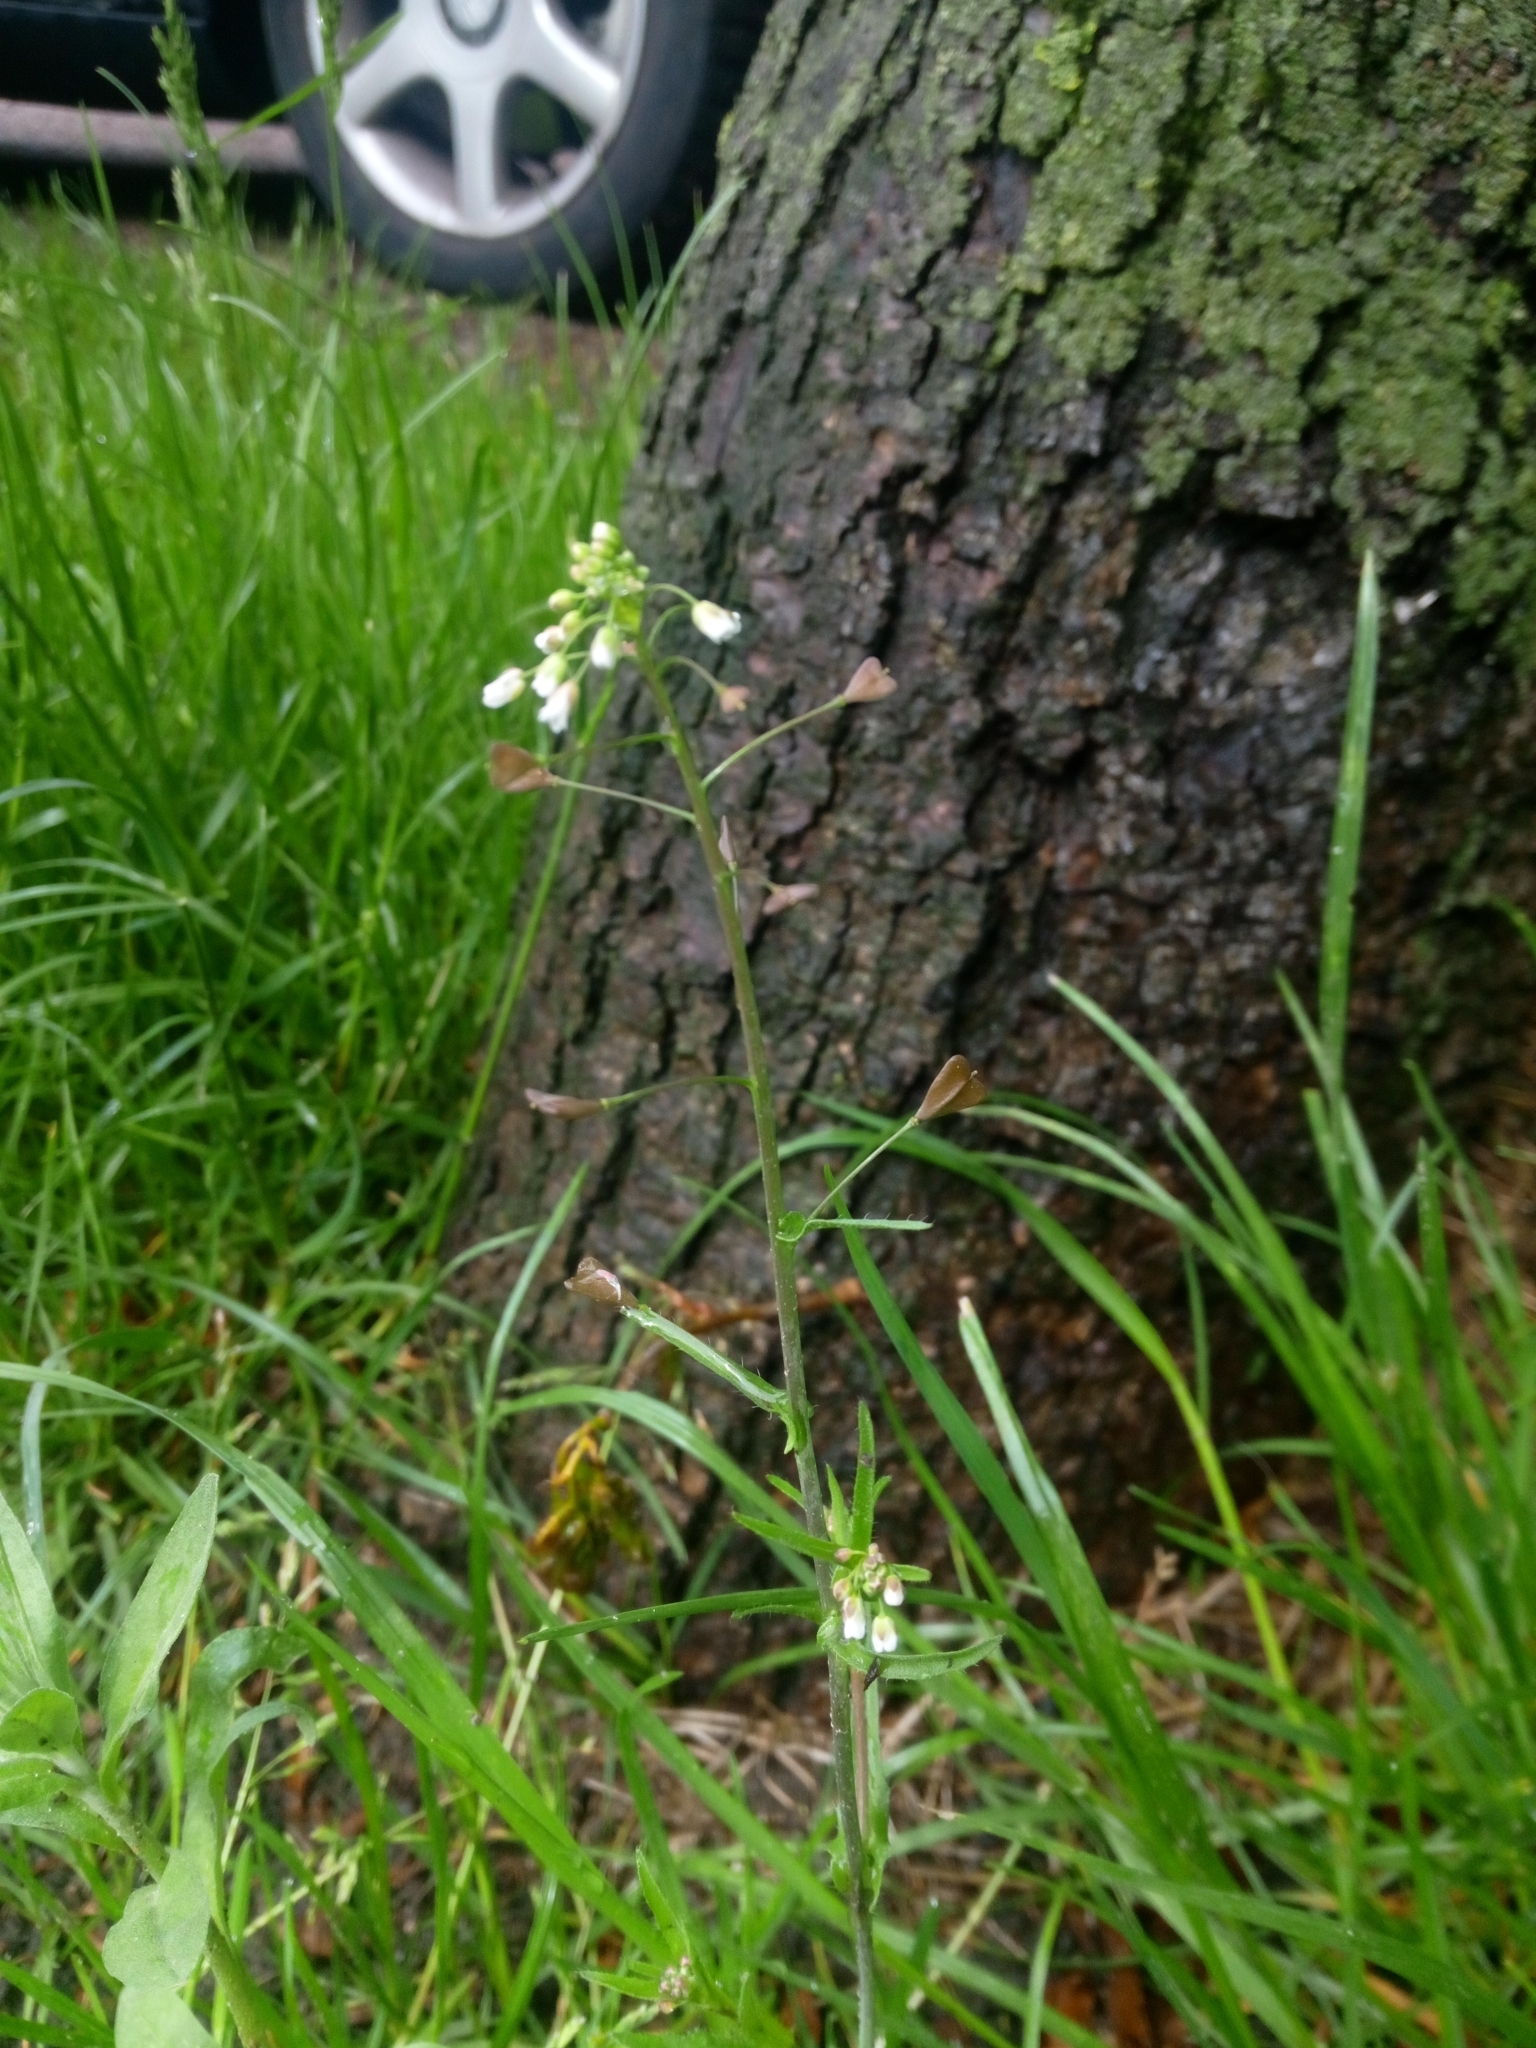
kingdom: Plantae
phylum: Tracheophyta
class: Magnoliopsida
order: Brassicales
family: Brassicaceae
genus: Capsella
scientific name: Capsella bursa-pastoris
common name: Shepherd's purse
